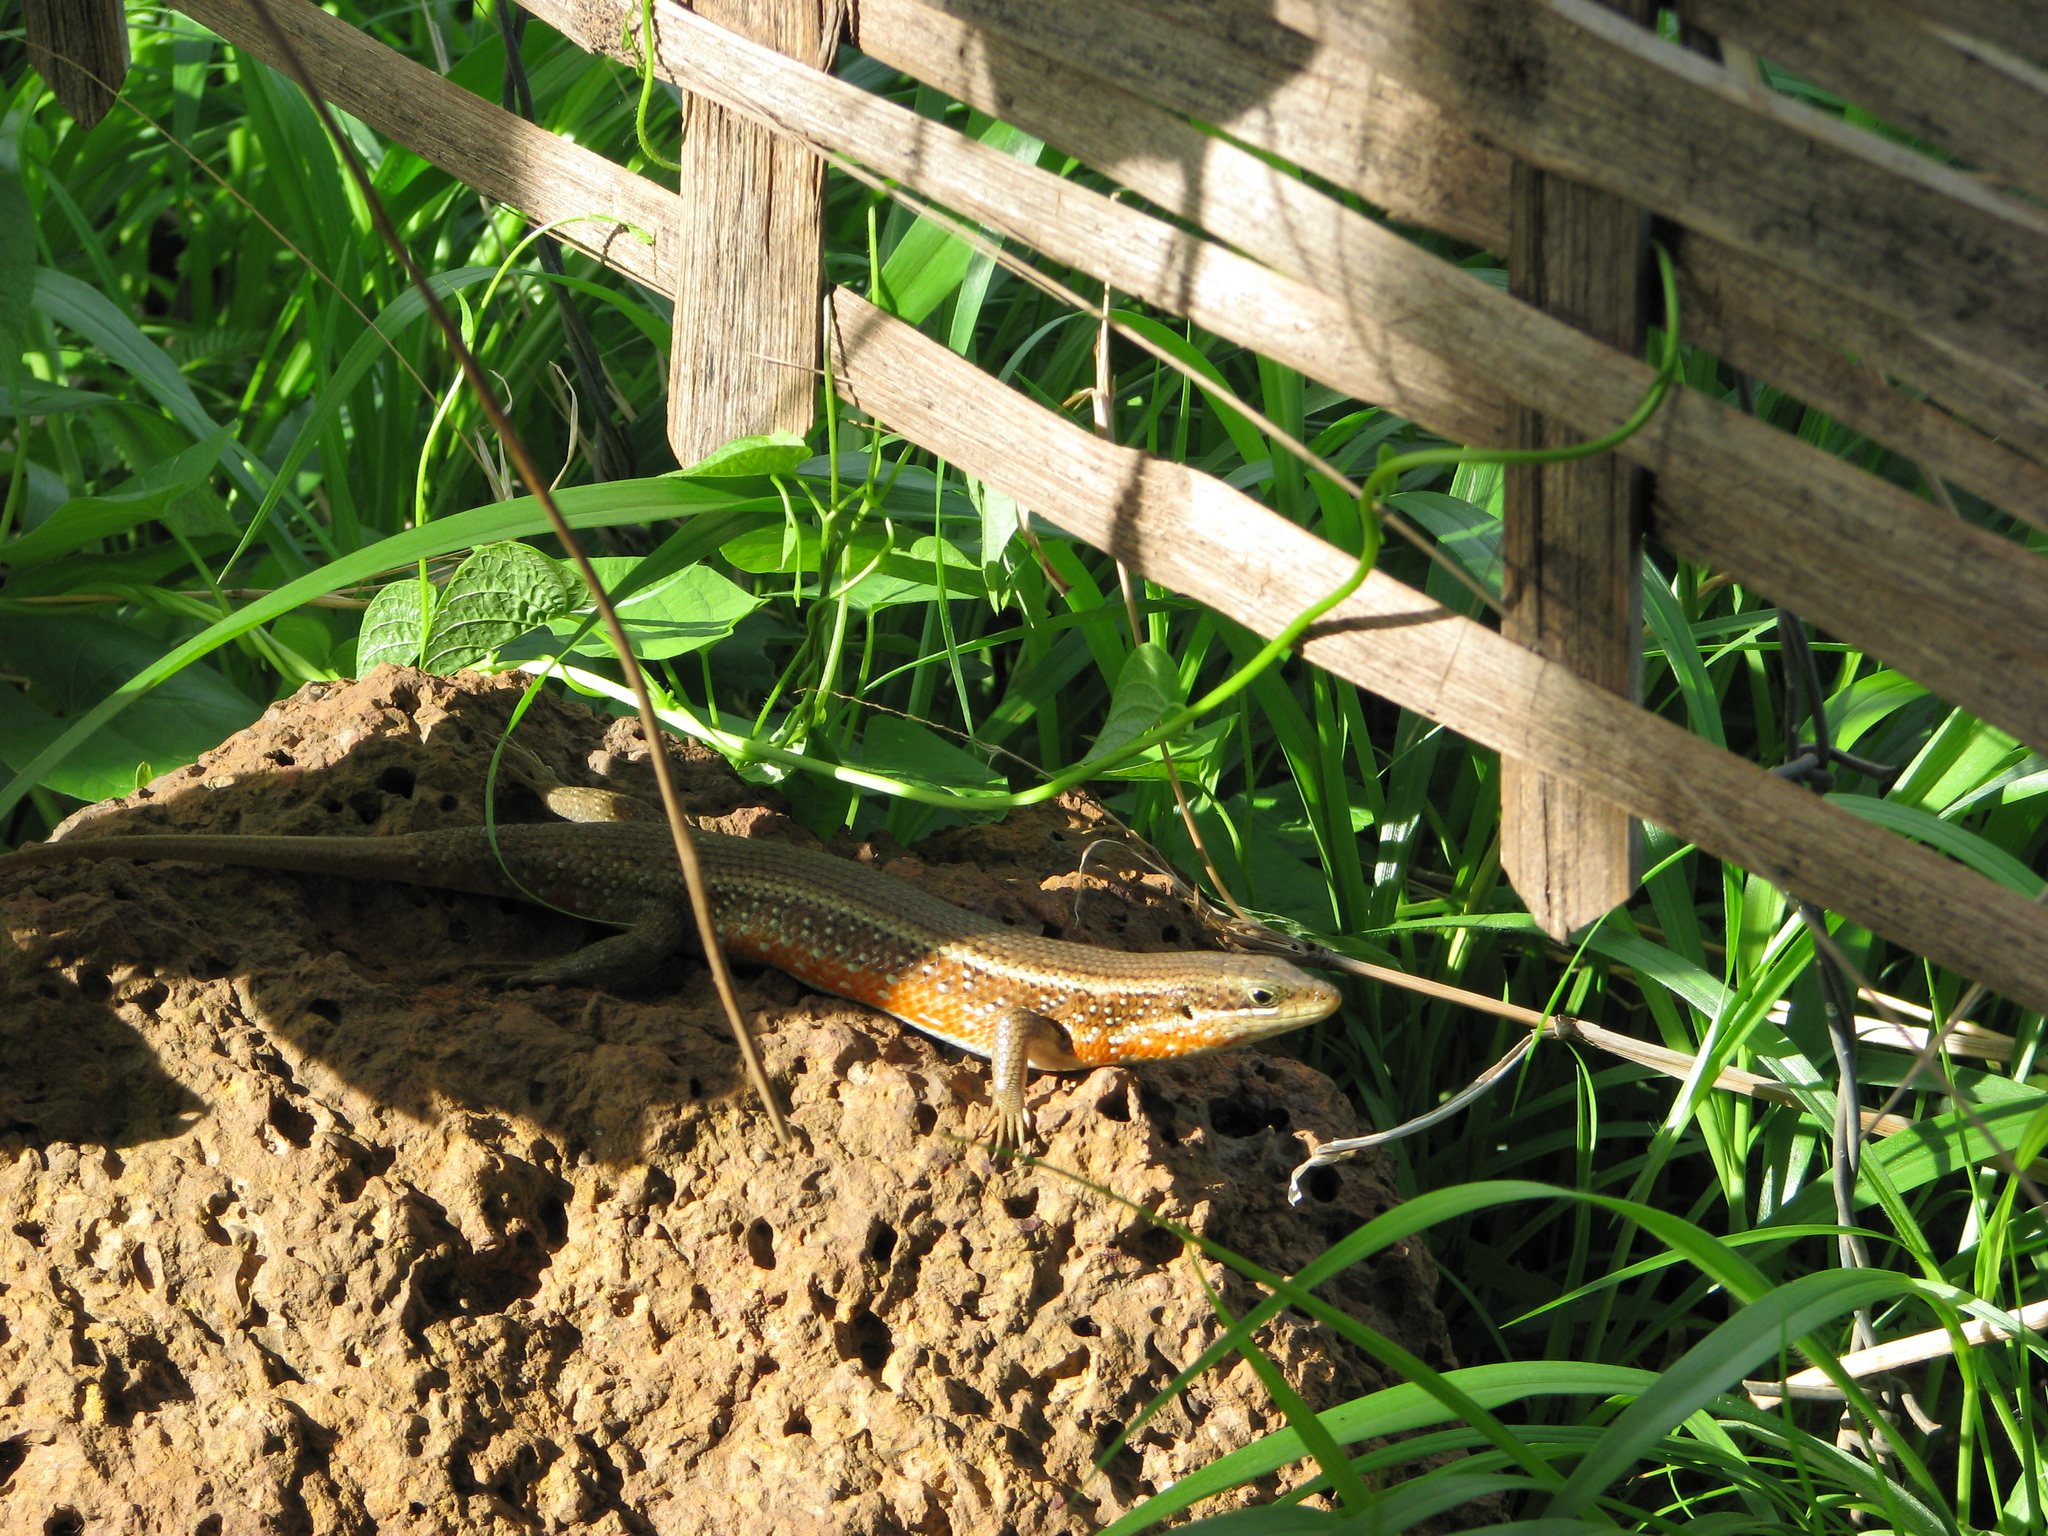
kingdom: Animalia
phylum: Chordata
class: Squamata
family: Scincidae
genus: Trachylepis
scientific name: Trachylepis perrotetii
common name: Teita mabuya
